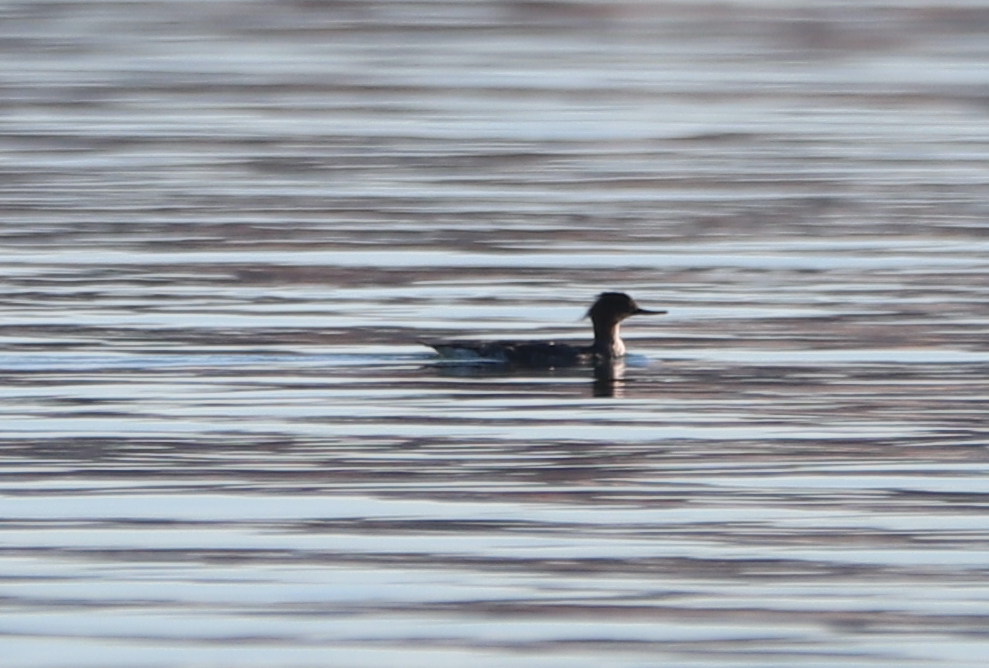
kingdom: Animalia
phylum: Chordata
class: Aves
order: Anseriformes
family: Anatidae
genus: Mergus
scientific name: Mergus serrator
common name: Red-breasted merganser
